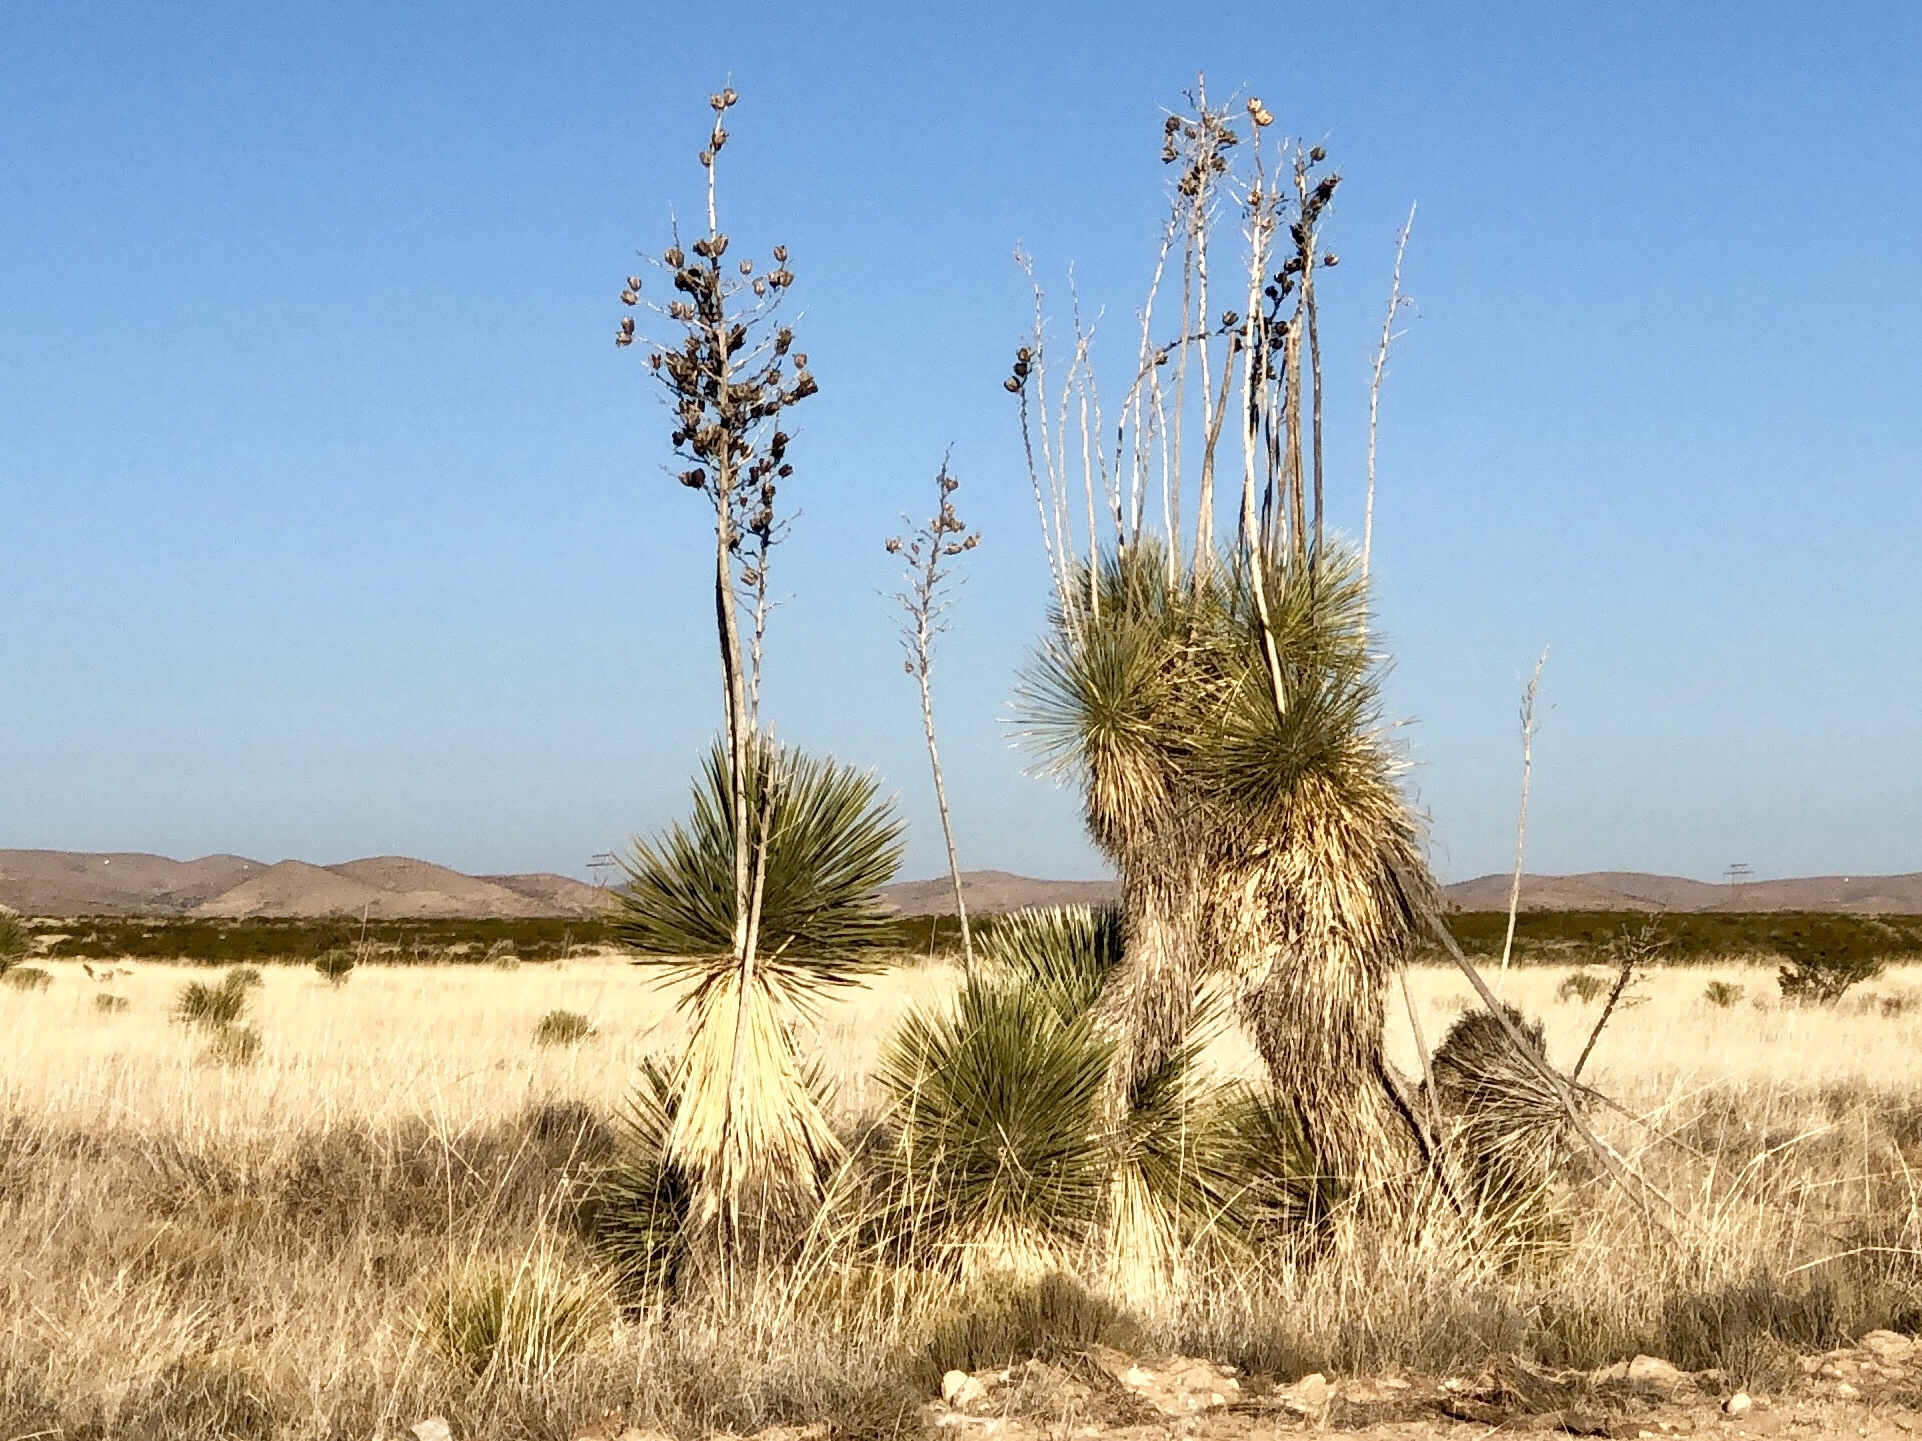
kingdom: Plantae
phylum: Tracheophyta
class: Liliopsida
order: Asparagales
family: Asparagaceae
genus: Yucca
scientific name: Yucca elata
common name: Palmella
